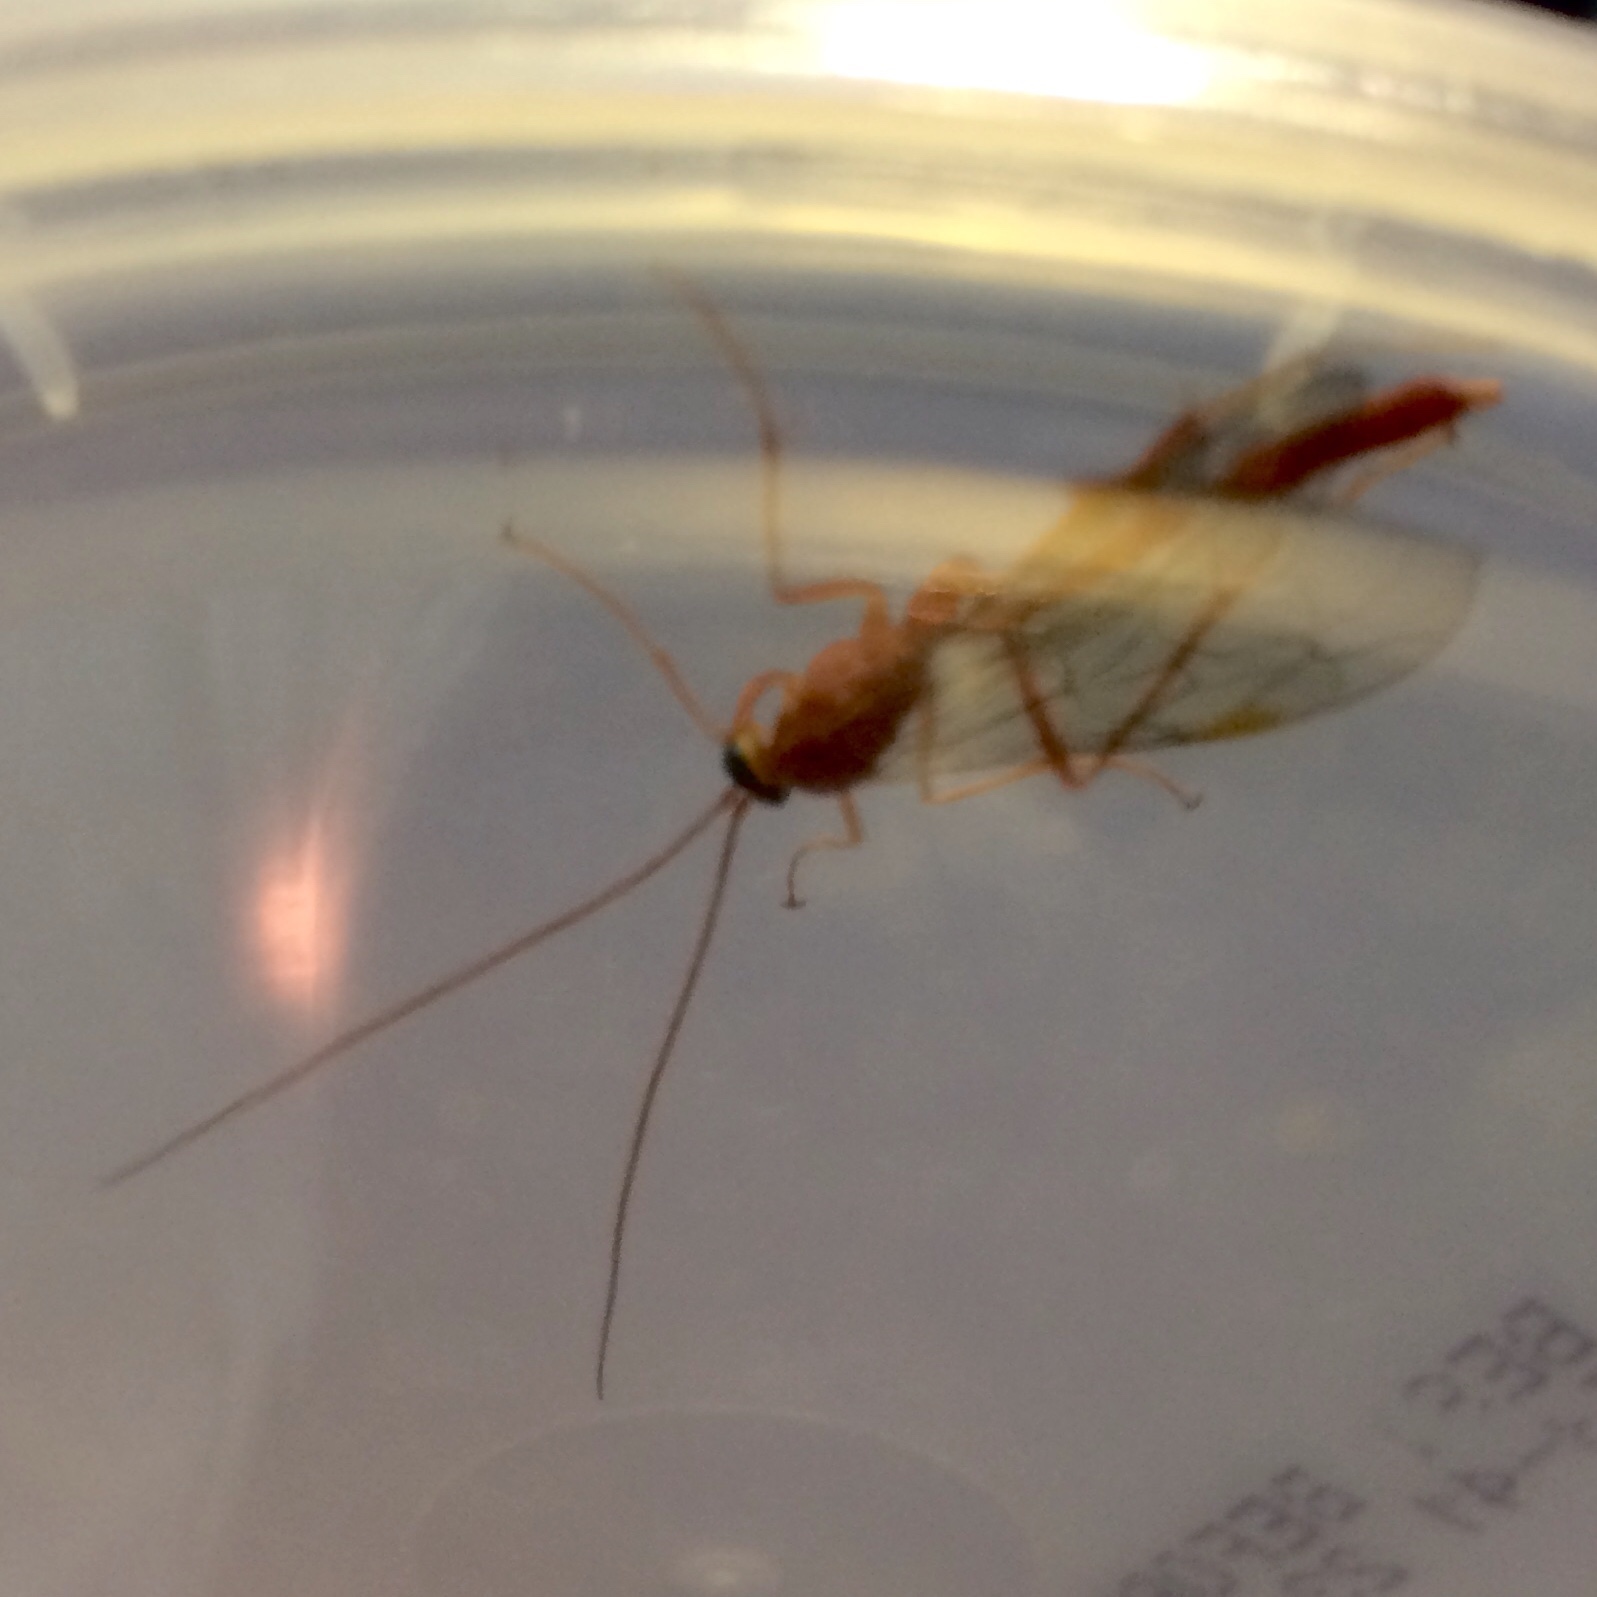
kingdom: Animalia
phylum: Arthropoda
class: Insecta
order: Hymenoptera
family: Ichneumonidae
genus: Netelia
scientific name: Netelia
